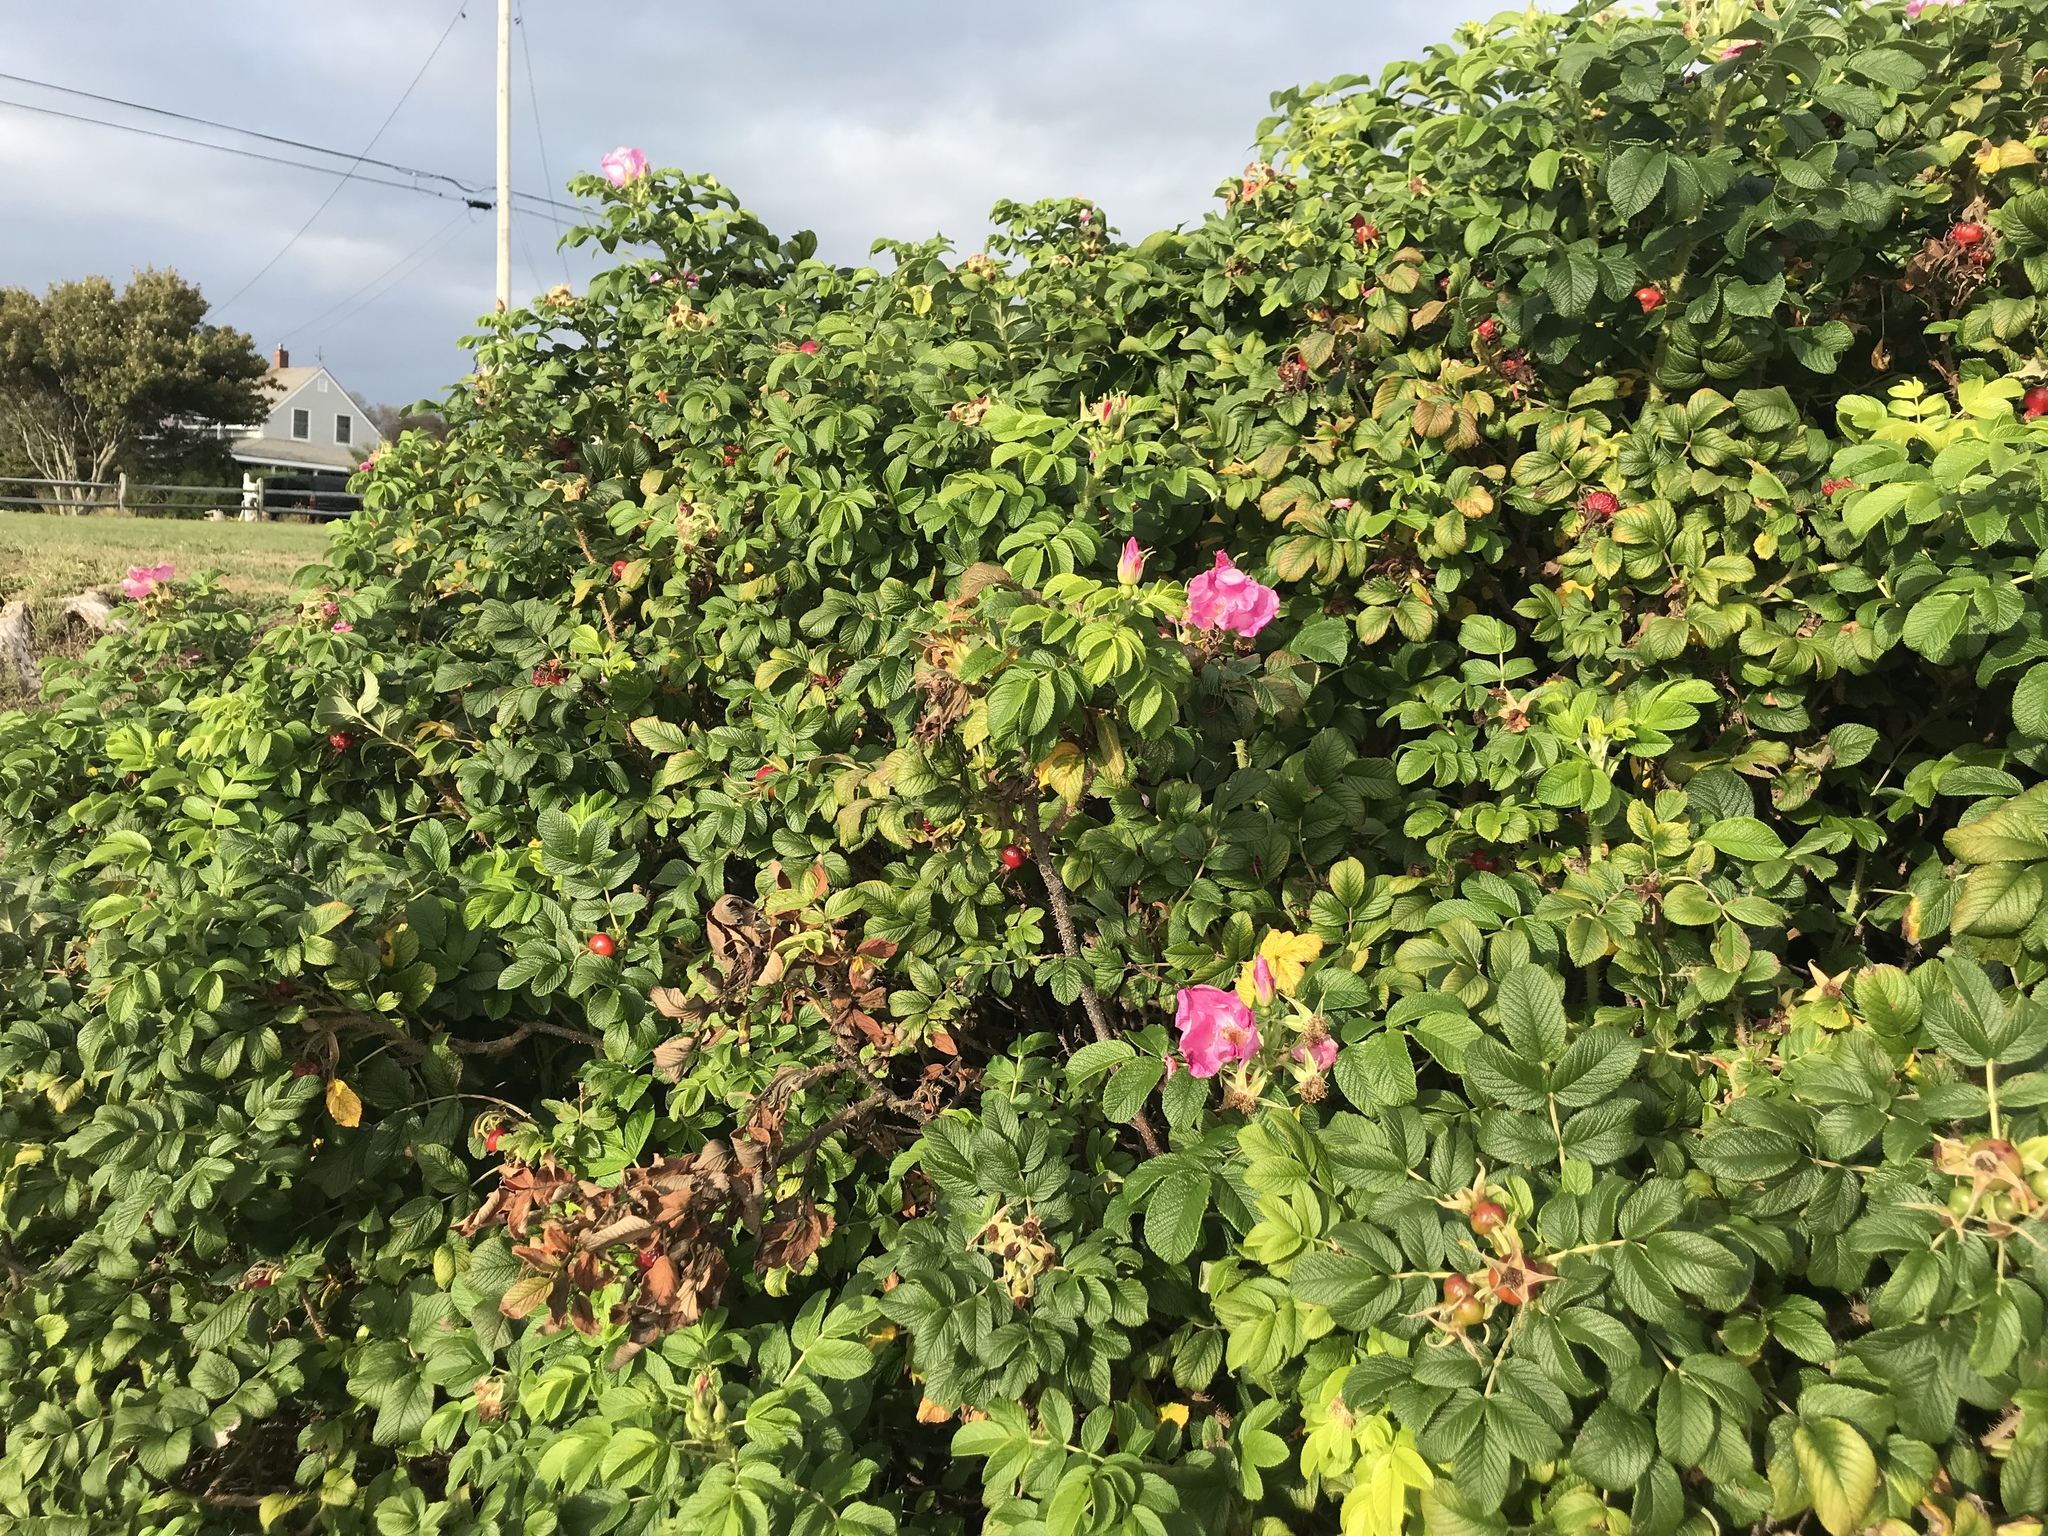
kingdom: Plantae
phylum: Tracheophyta
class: Magnoliopsida
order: Rosales
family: Rosaceae
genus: Rosa
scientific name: Rosa rugosa
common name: Japanese rose
